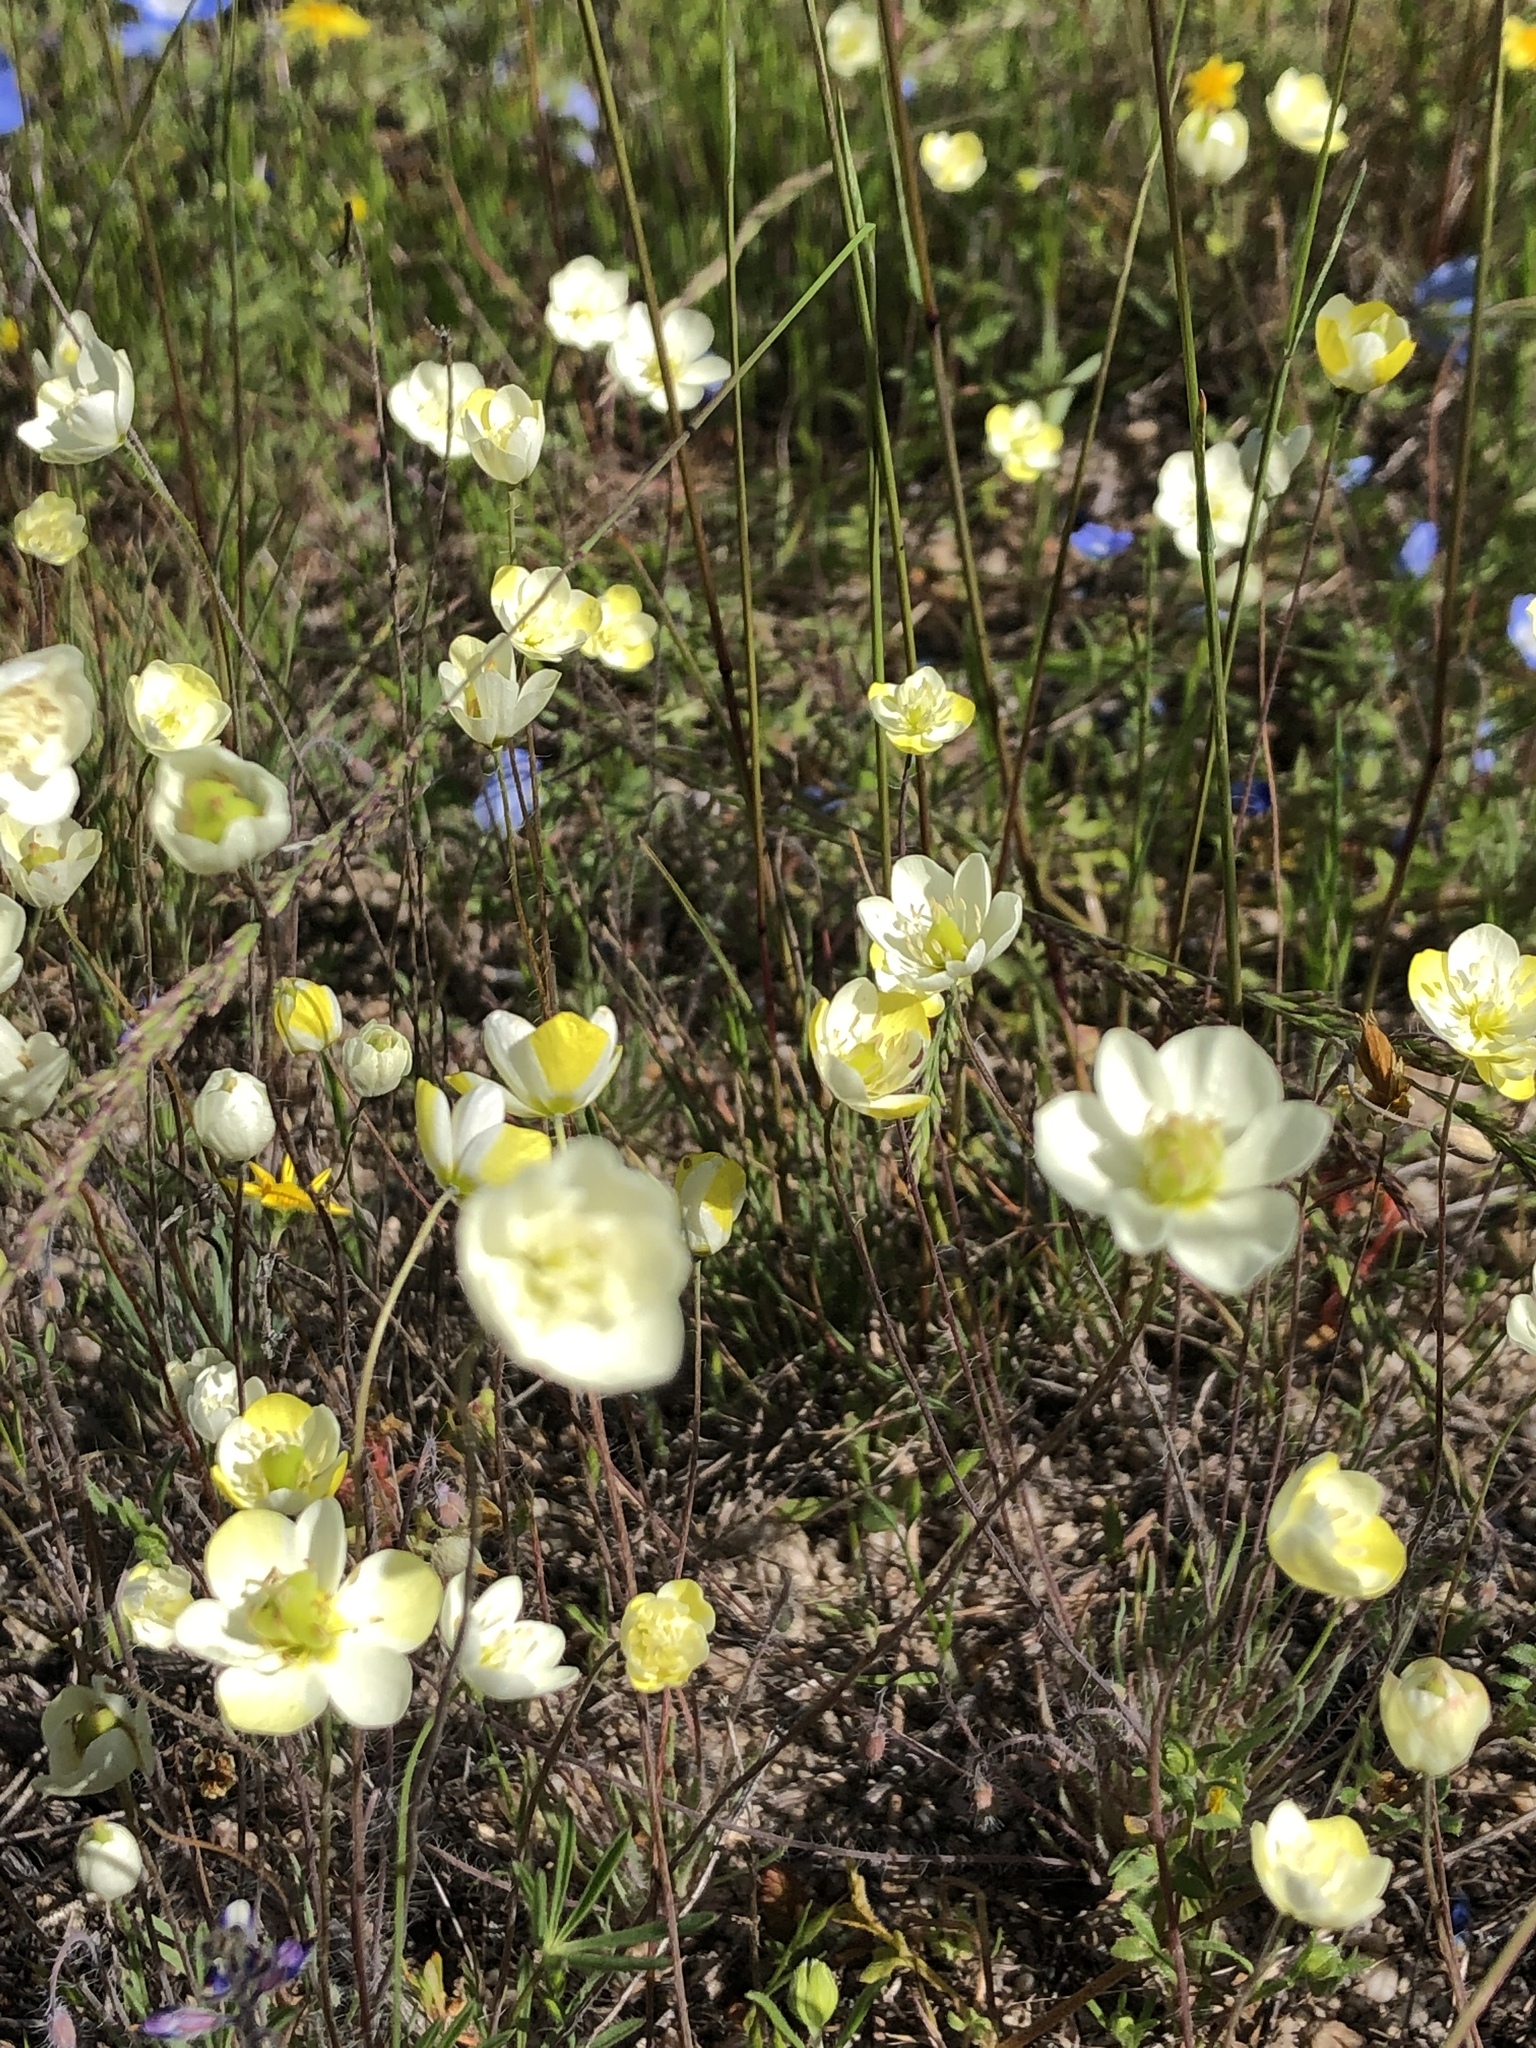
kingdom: Plantae
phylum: Tracheophyta
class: Magnoliopsida
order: Ranunculales
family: Papaveraceae
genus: Platystigma
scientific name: Platystigma lineare
